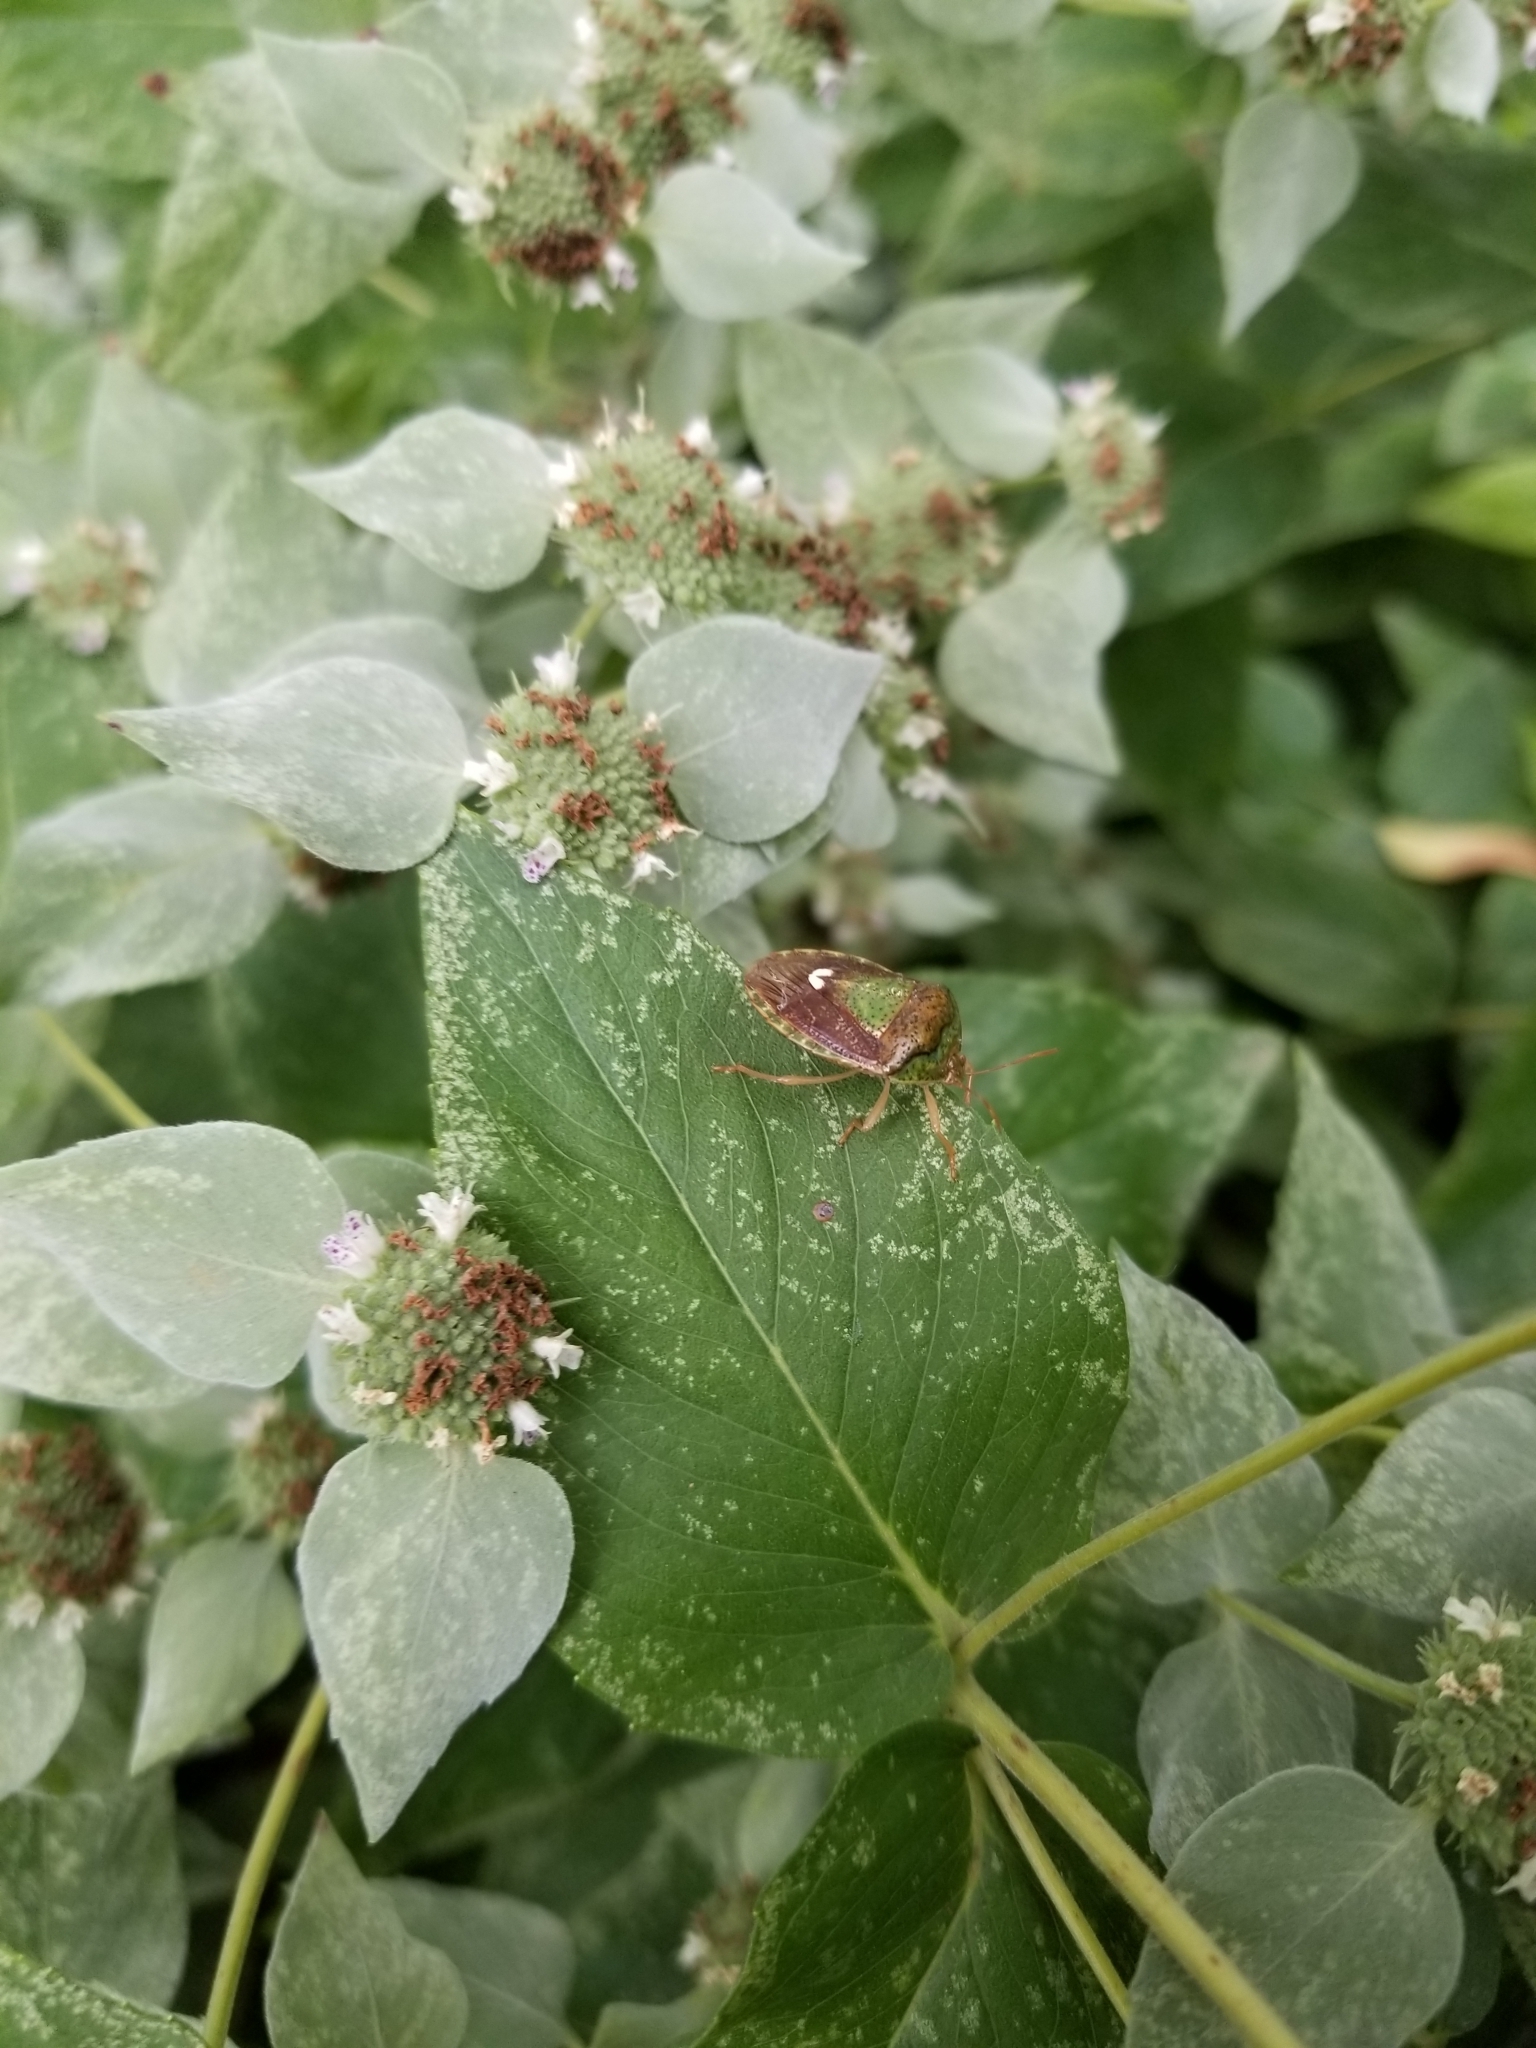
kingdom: Animalia
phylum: Arthropoda
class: Insecta
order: Hemiptera
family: Pentatomidae
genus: Edessa
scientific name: Edessa bifida
